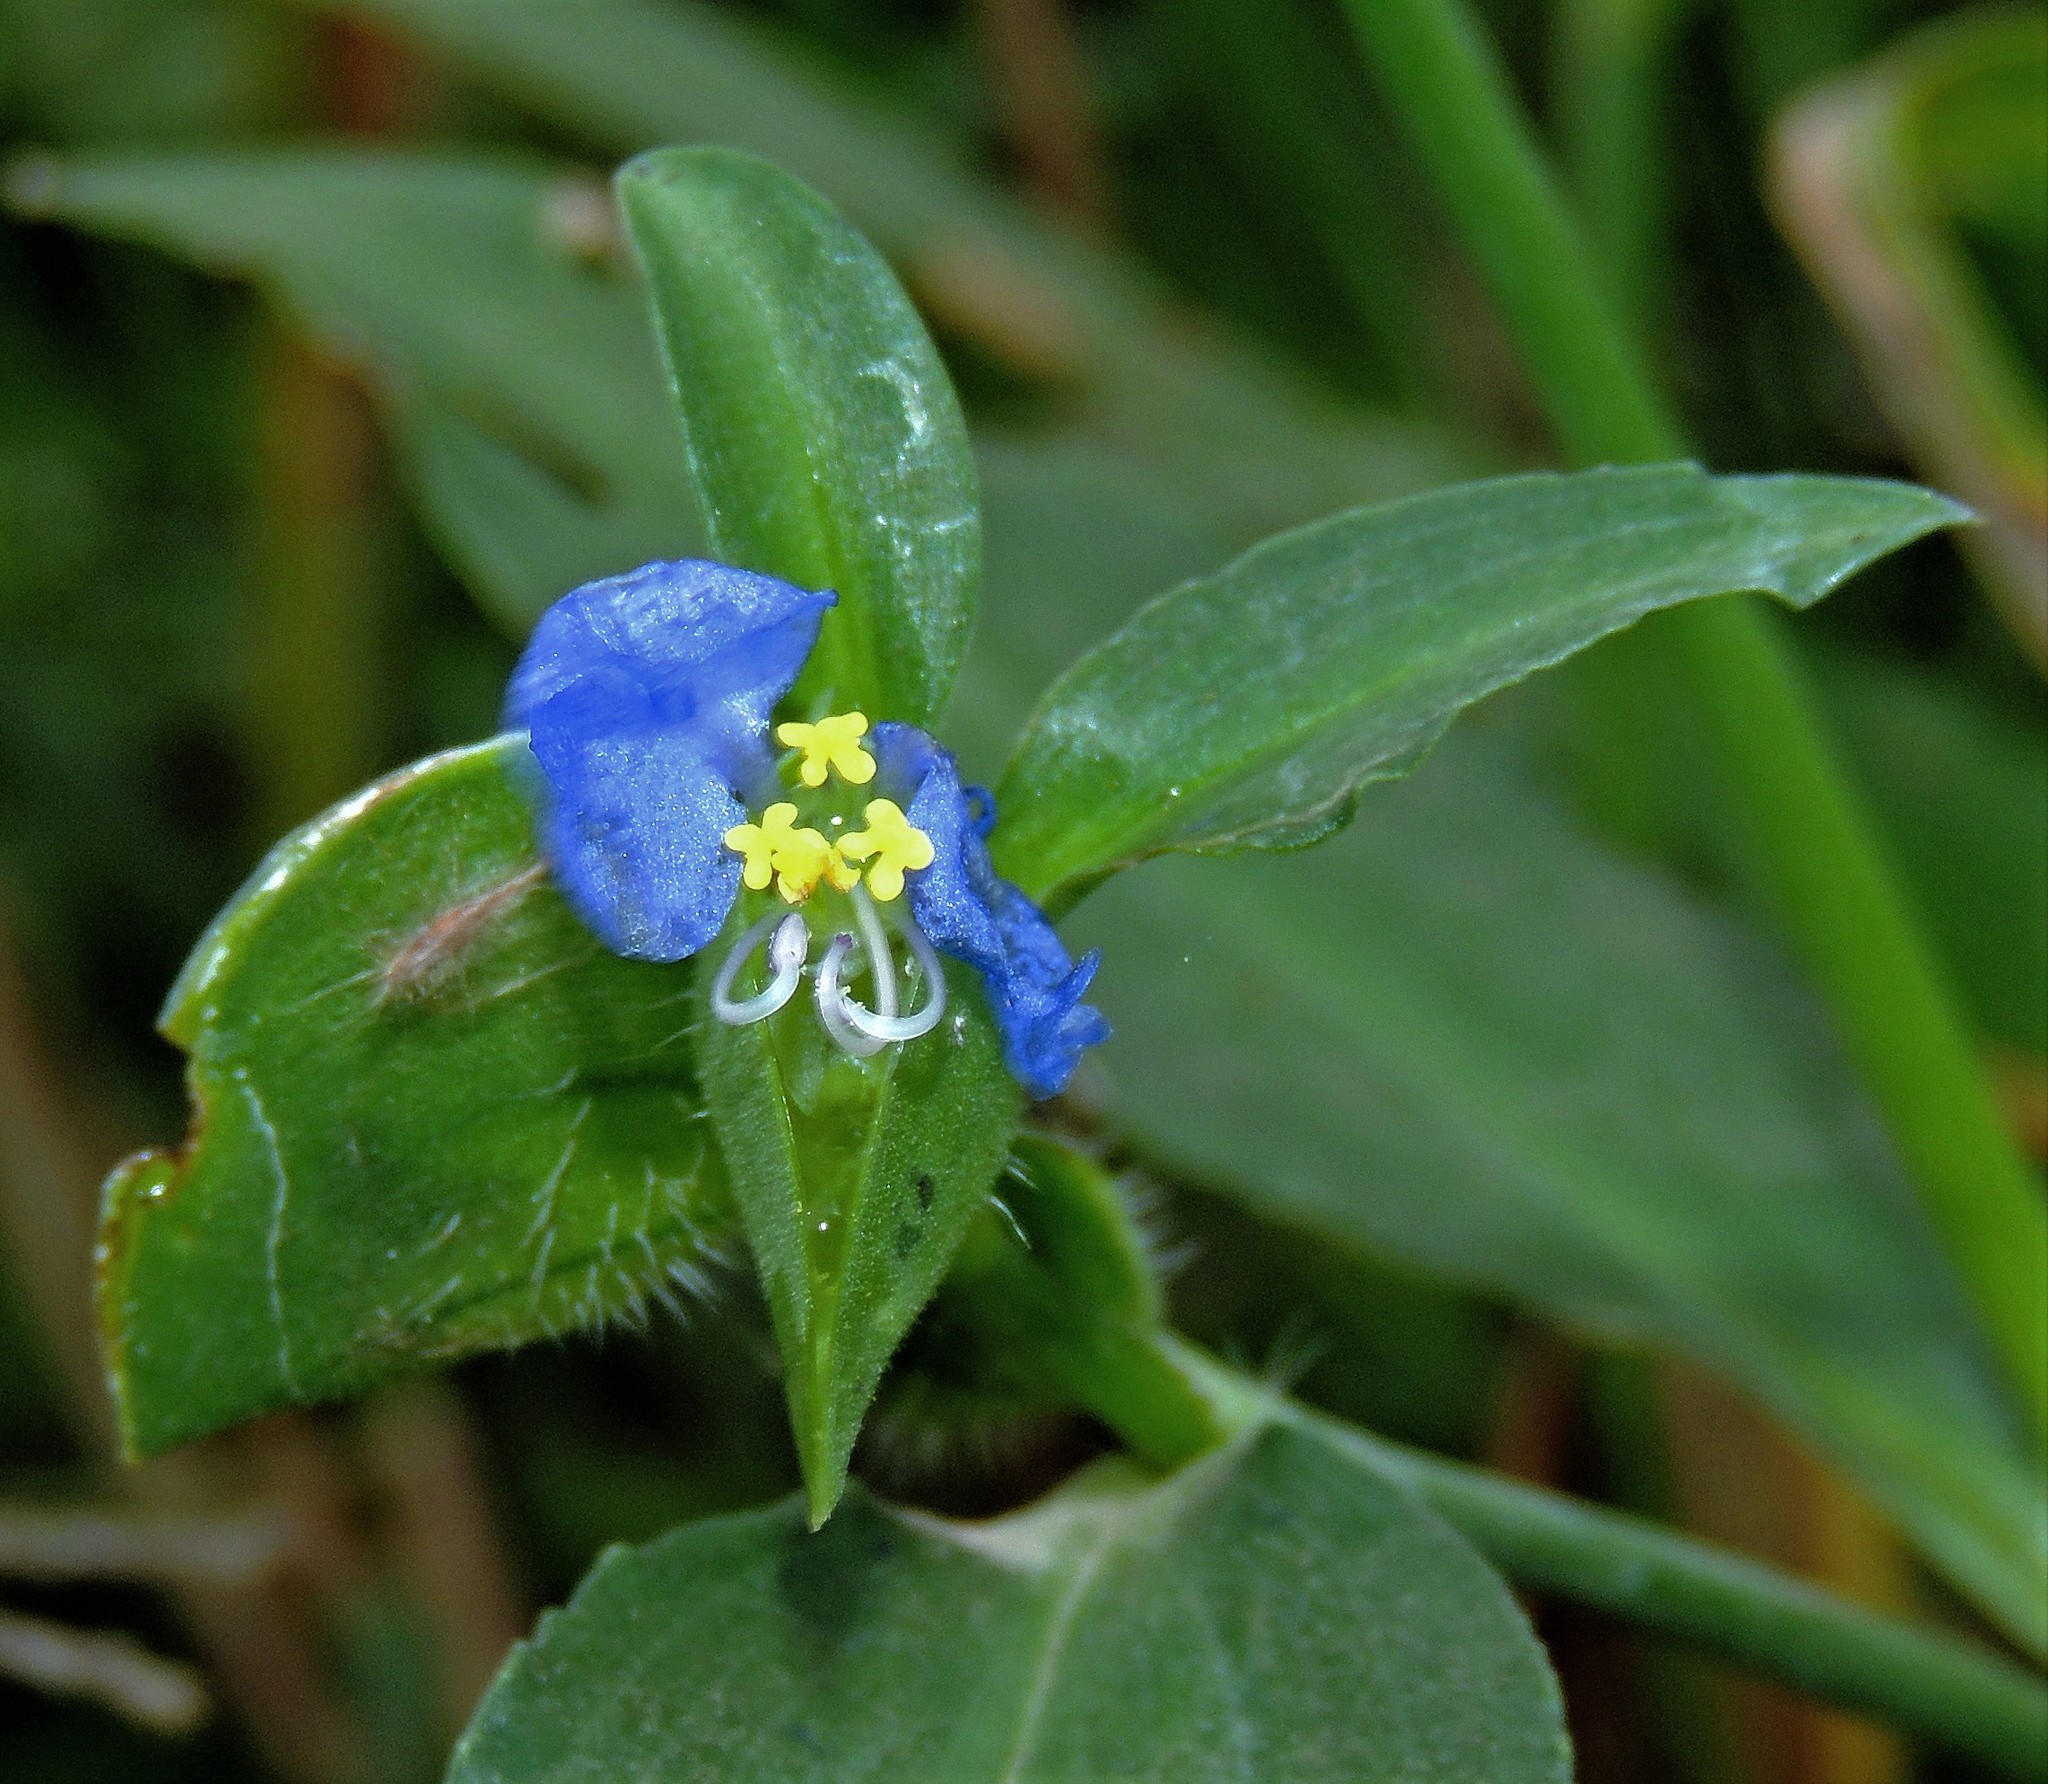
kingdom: Plantae
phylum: Tracheophyta
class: Liliopsida
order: Commelinales
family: Commelinaceae
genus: Commelina
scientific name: Commelina erecta
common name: Blousel blommetjie
